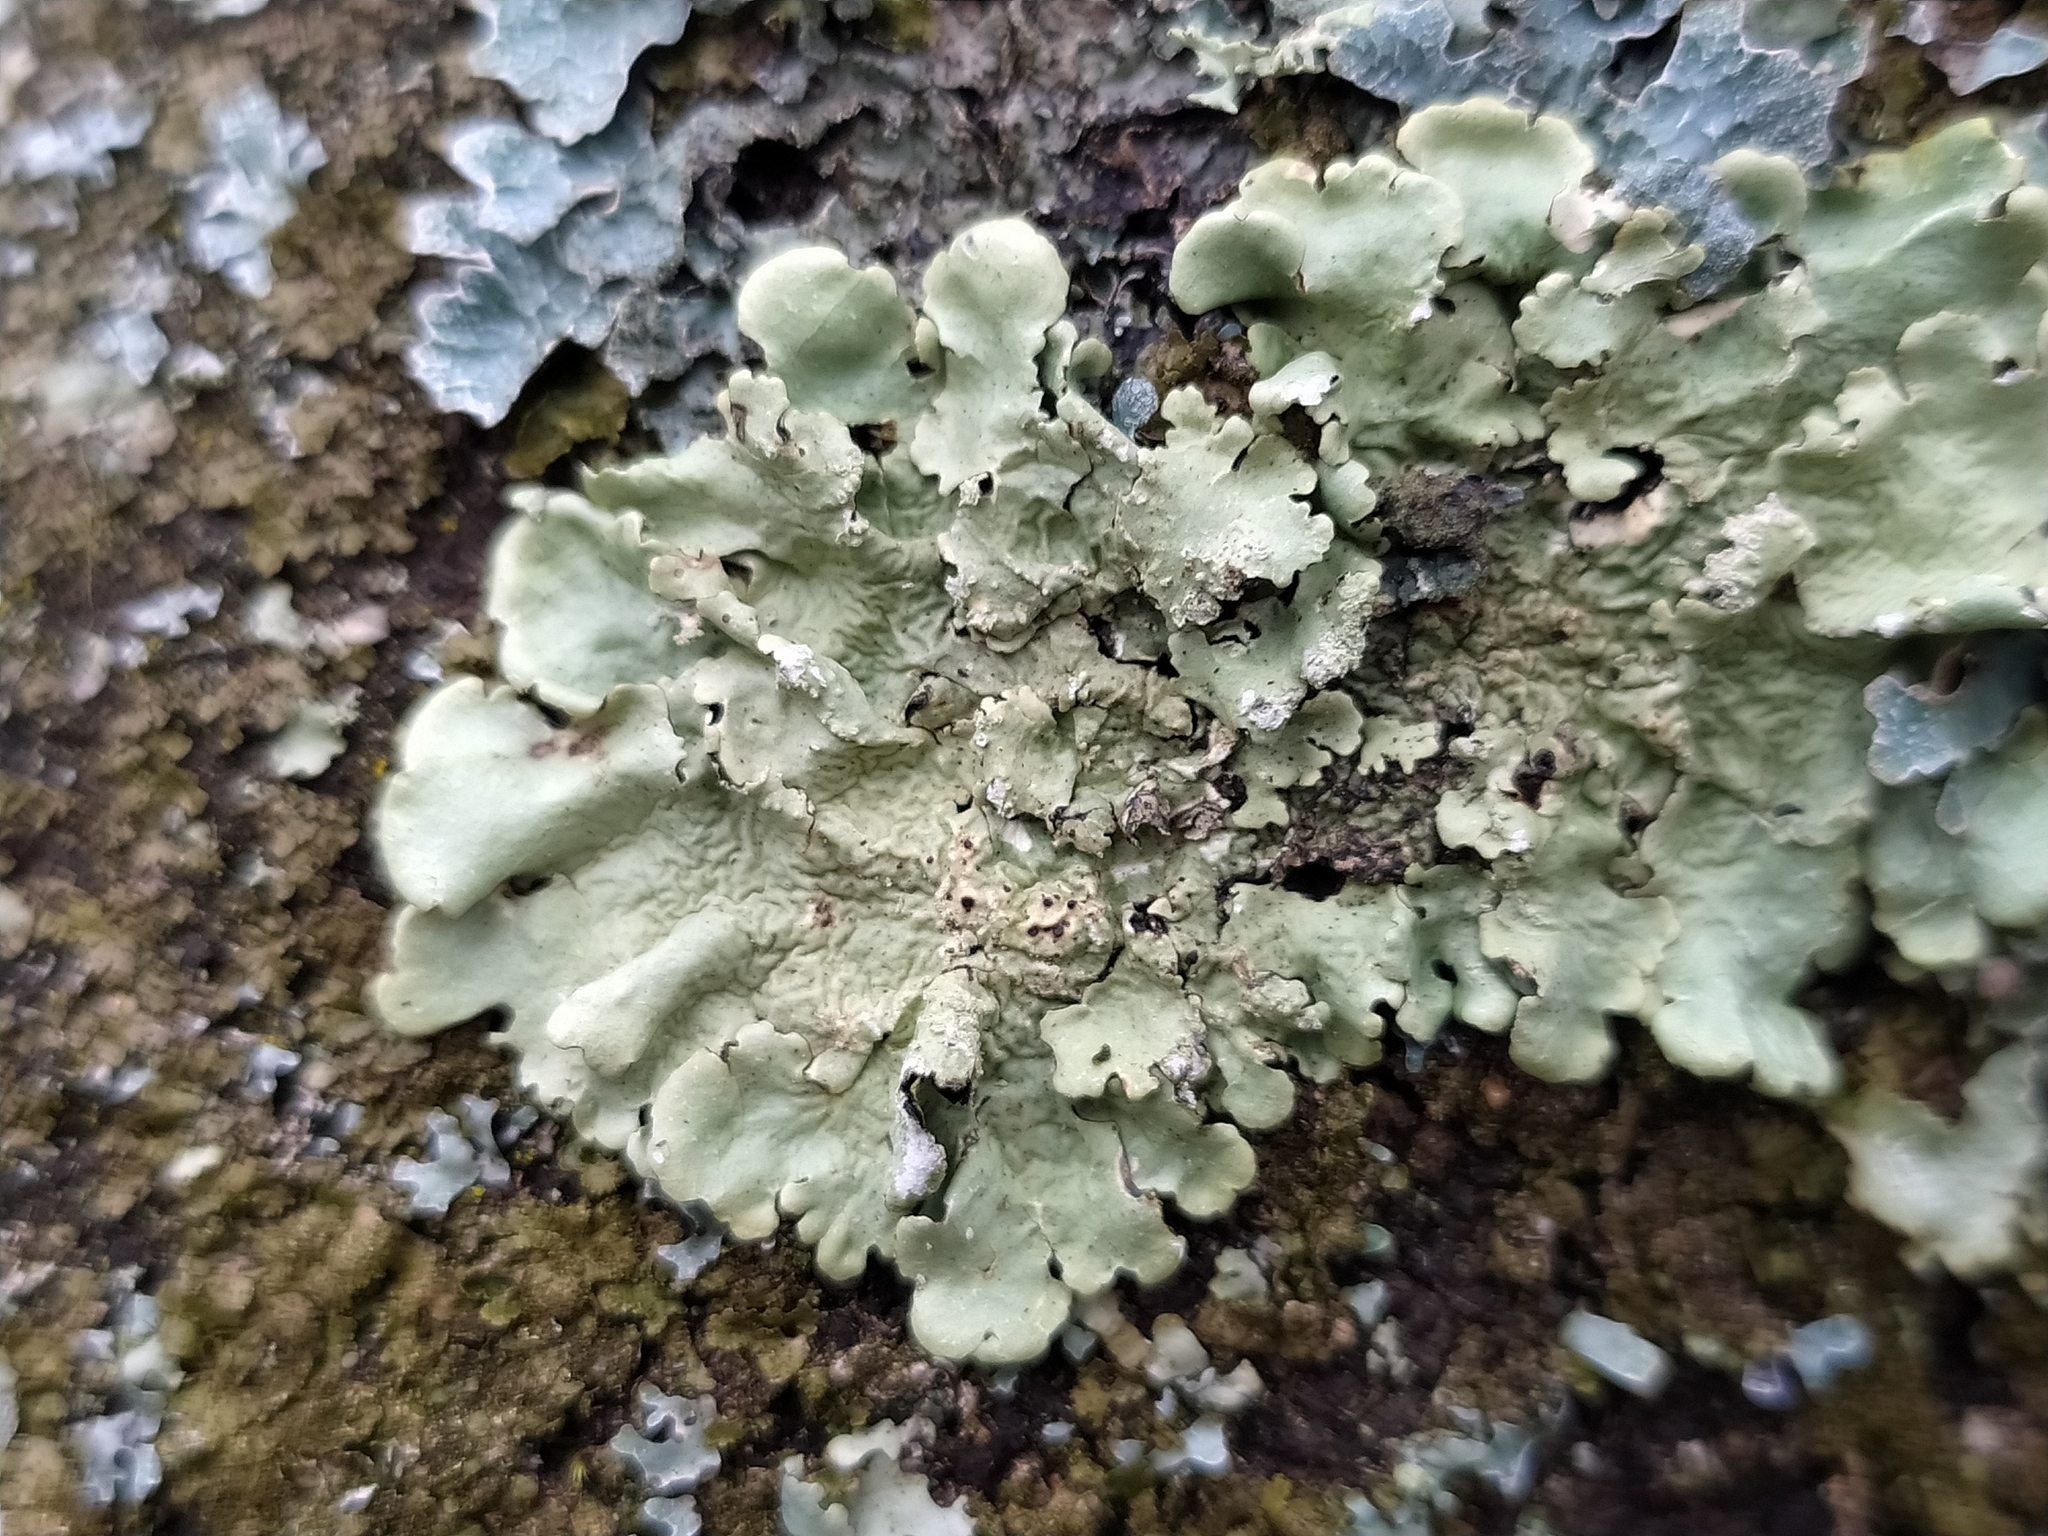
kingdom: Fungi
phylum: Ascomycota
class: Lecanoromycetes
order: Lecanorales
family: Parmeliaceae
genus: Flavoparmelia
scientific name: Flavoparmelia caperata
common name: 40-mile per hour lichen
